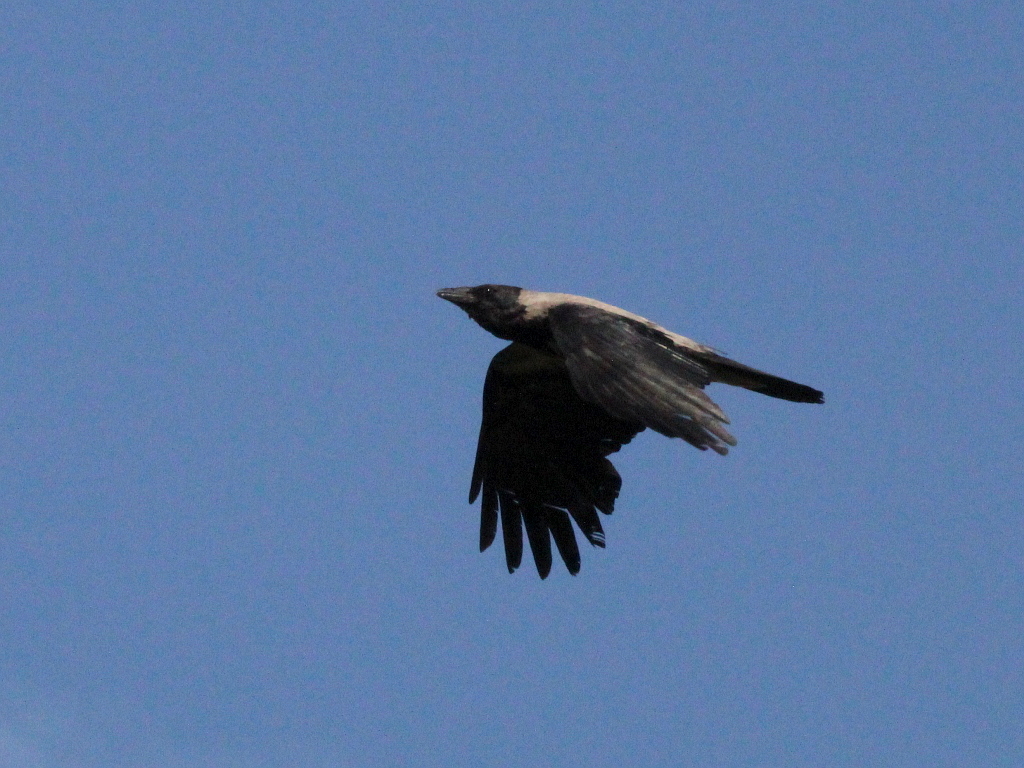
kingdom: Animalia
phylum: Chordata
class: Aves
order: Passeriformes
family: Corvidae
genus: Corvus
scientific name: Corvus cornix
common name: Hooded crow
